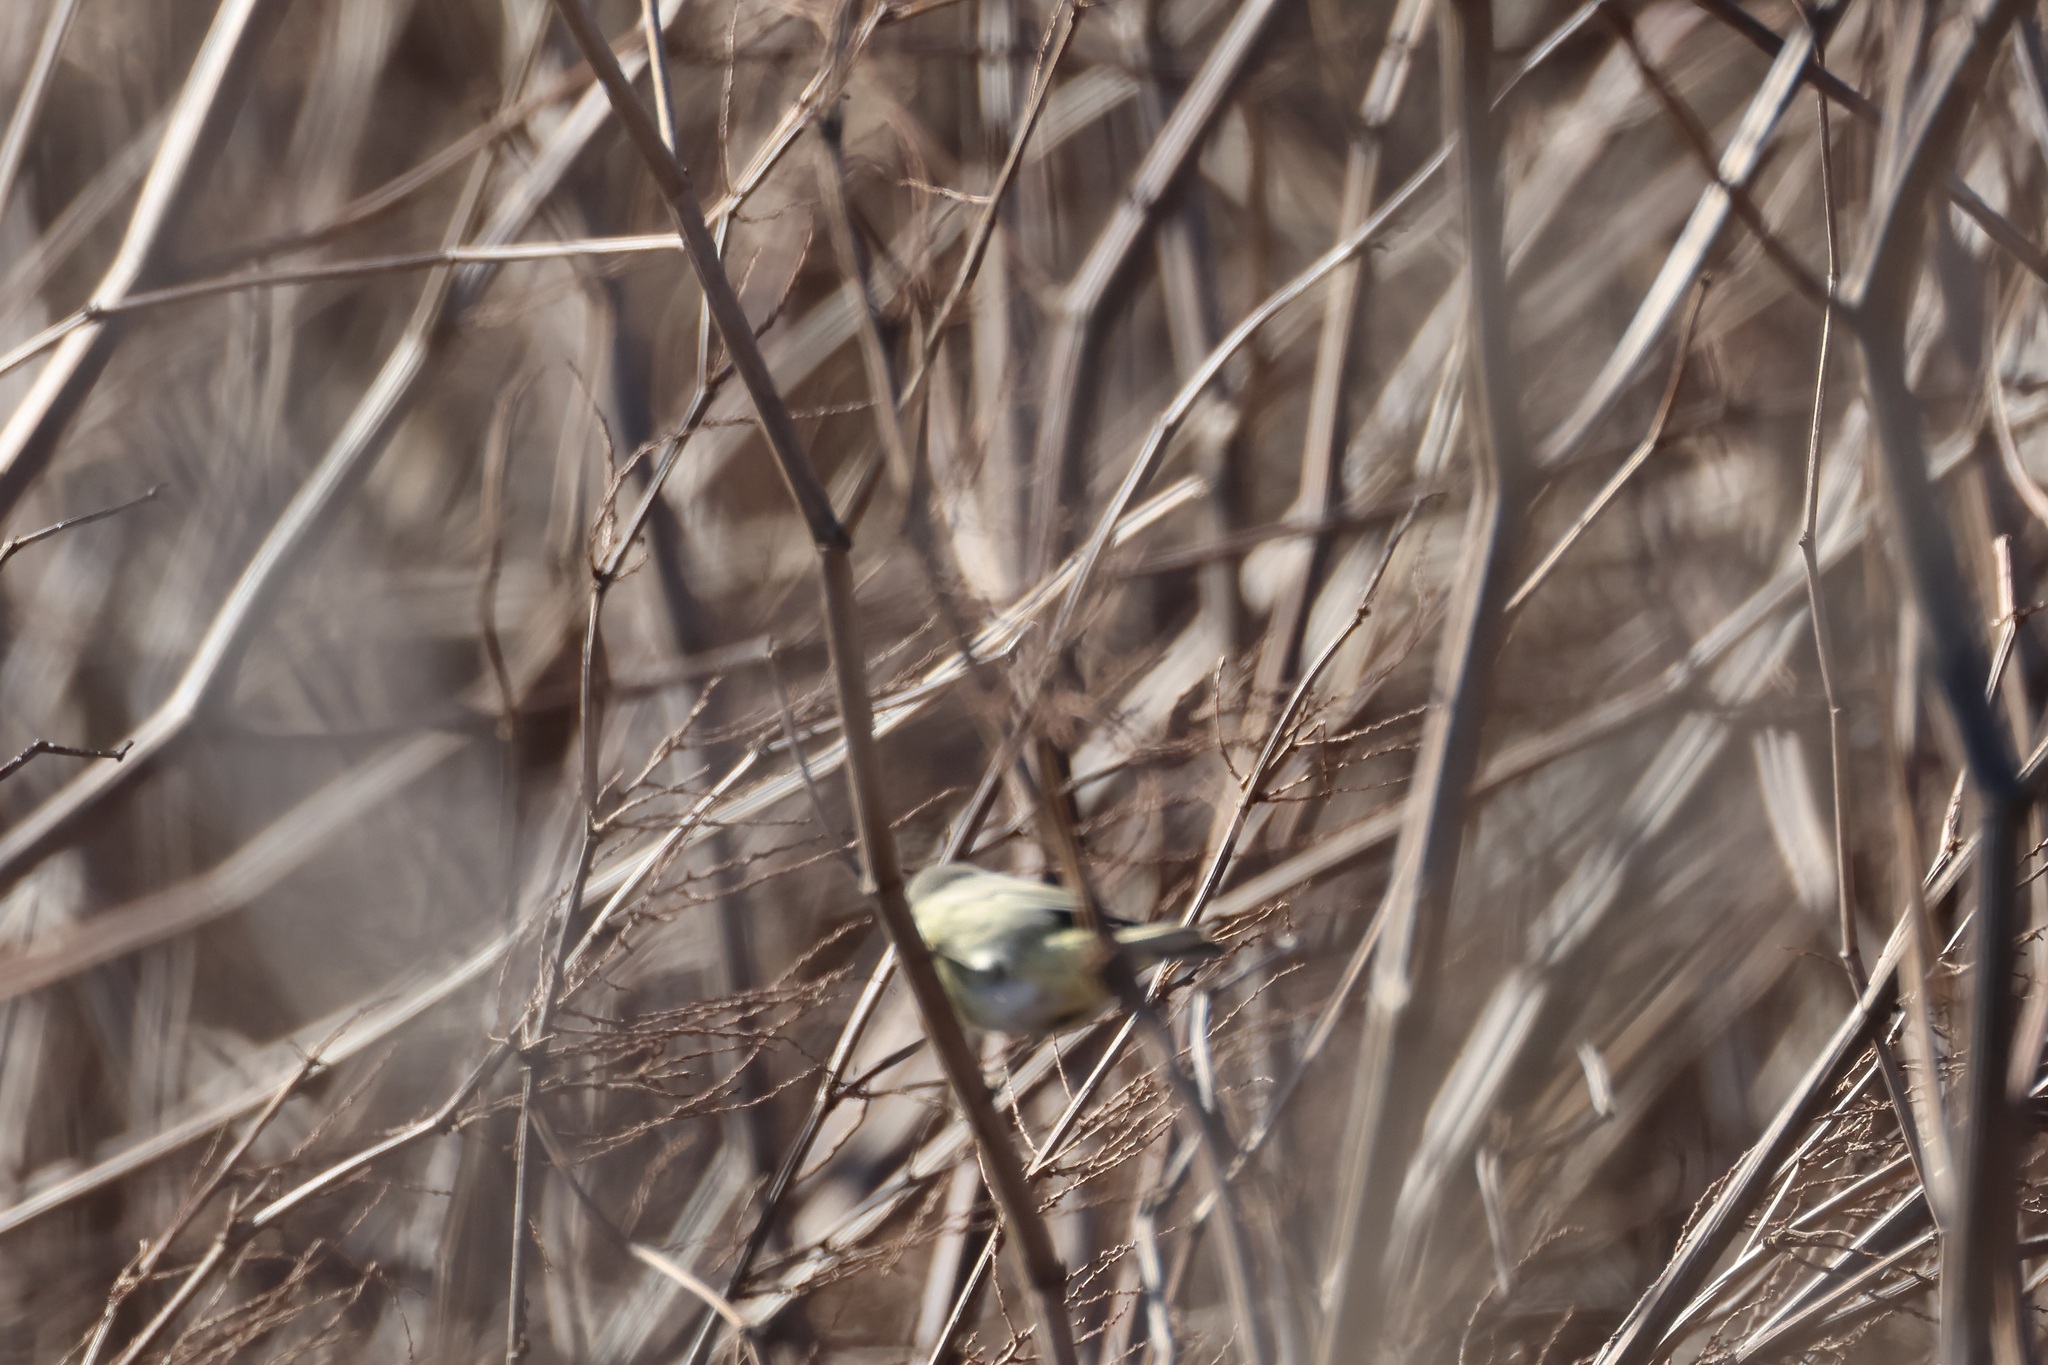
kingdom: Animalia
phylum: Chordata
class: Aves
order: Passeriformes
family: Parulidae
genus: Leiothlypis
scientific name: Leiothlypis celata
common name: Orange-crowned warbler
